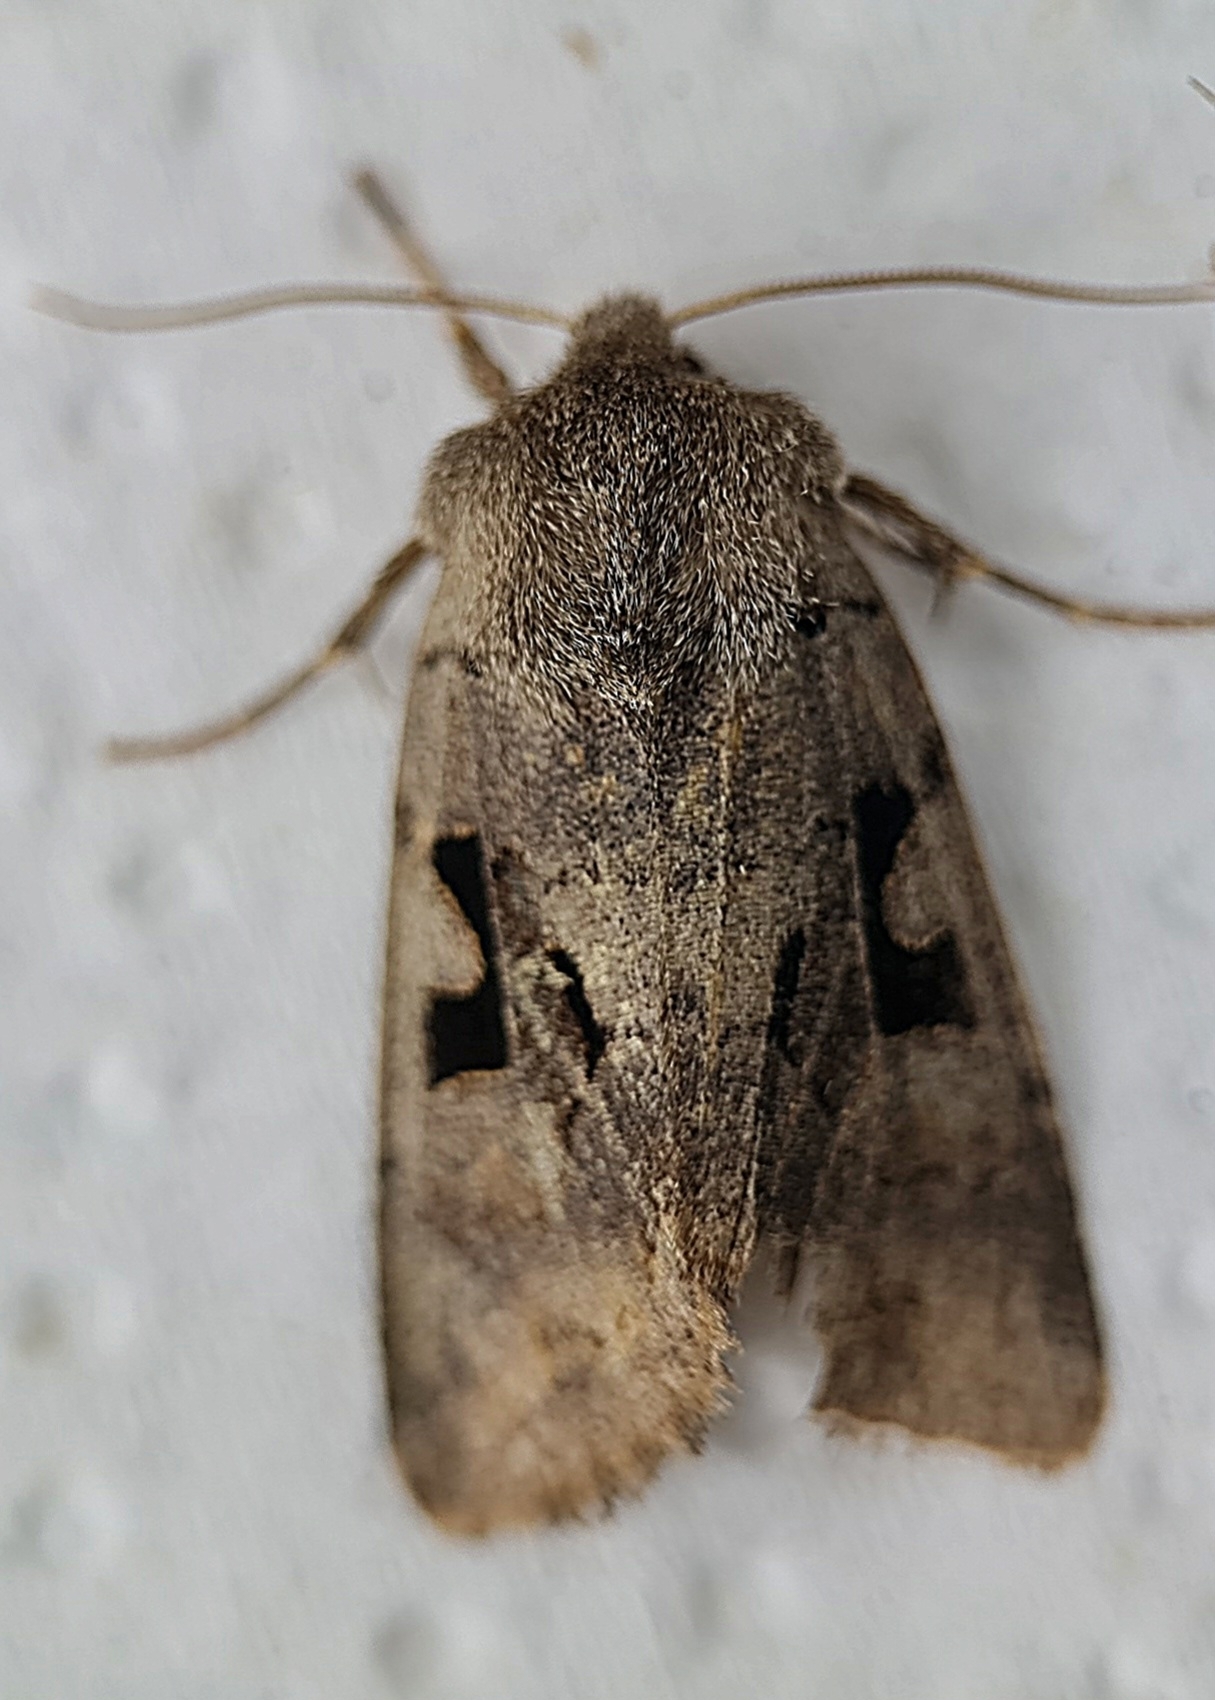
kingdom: Animalia
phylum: Arthropoda
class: Insecta
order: Lepidoptera
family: Noctuidae
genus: Orthosia
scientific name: Orthosia gothica
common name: Hebrew character
